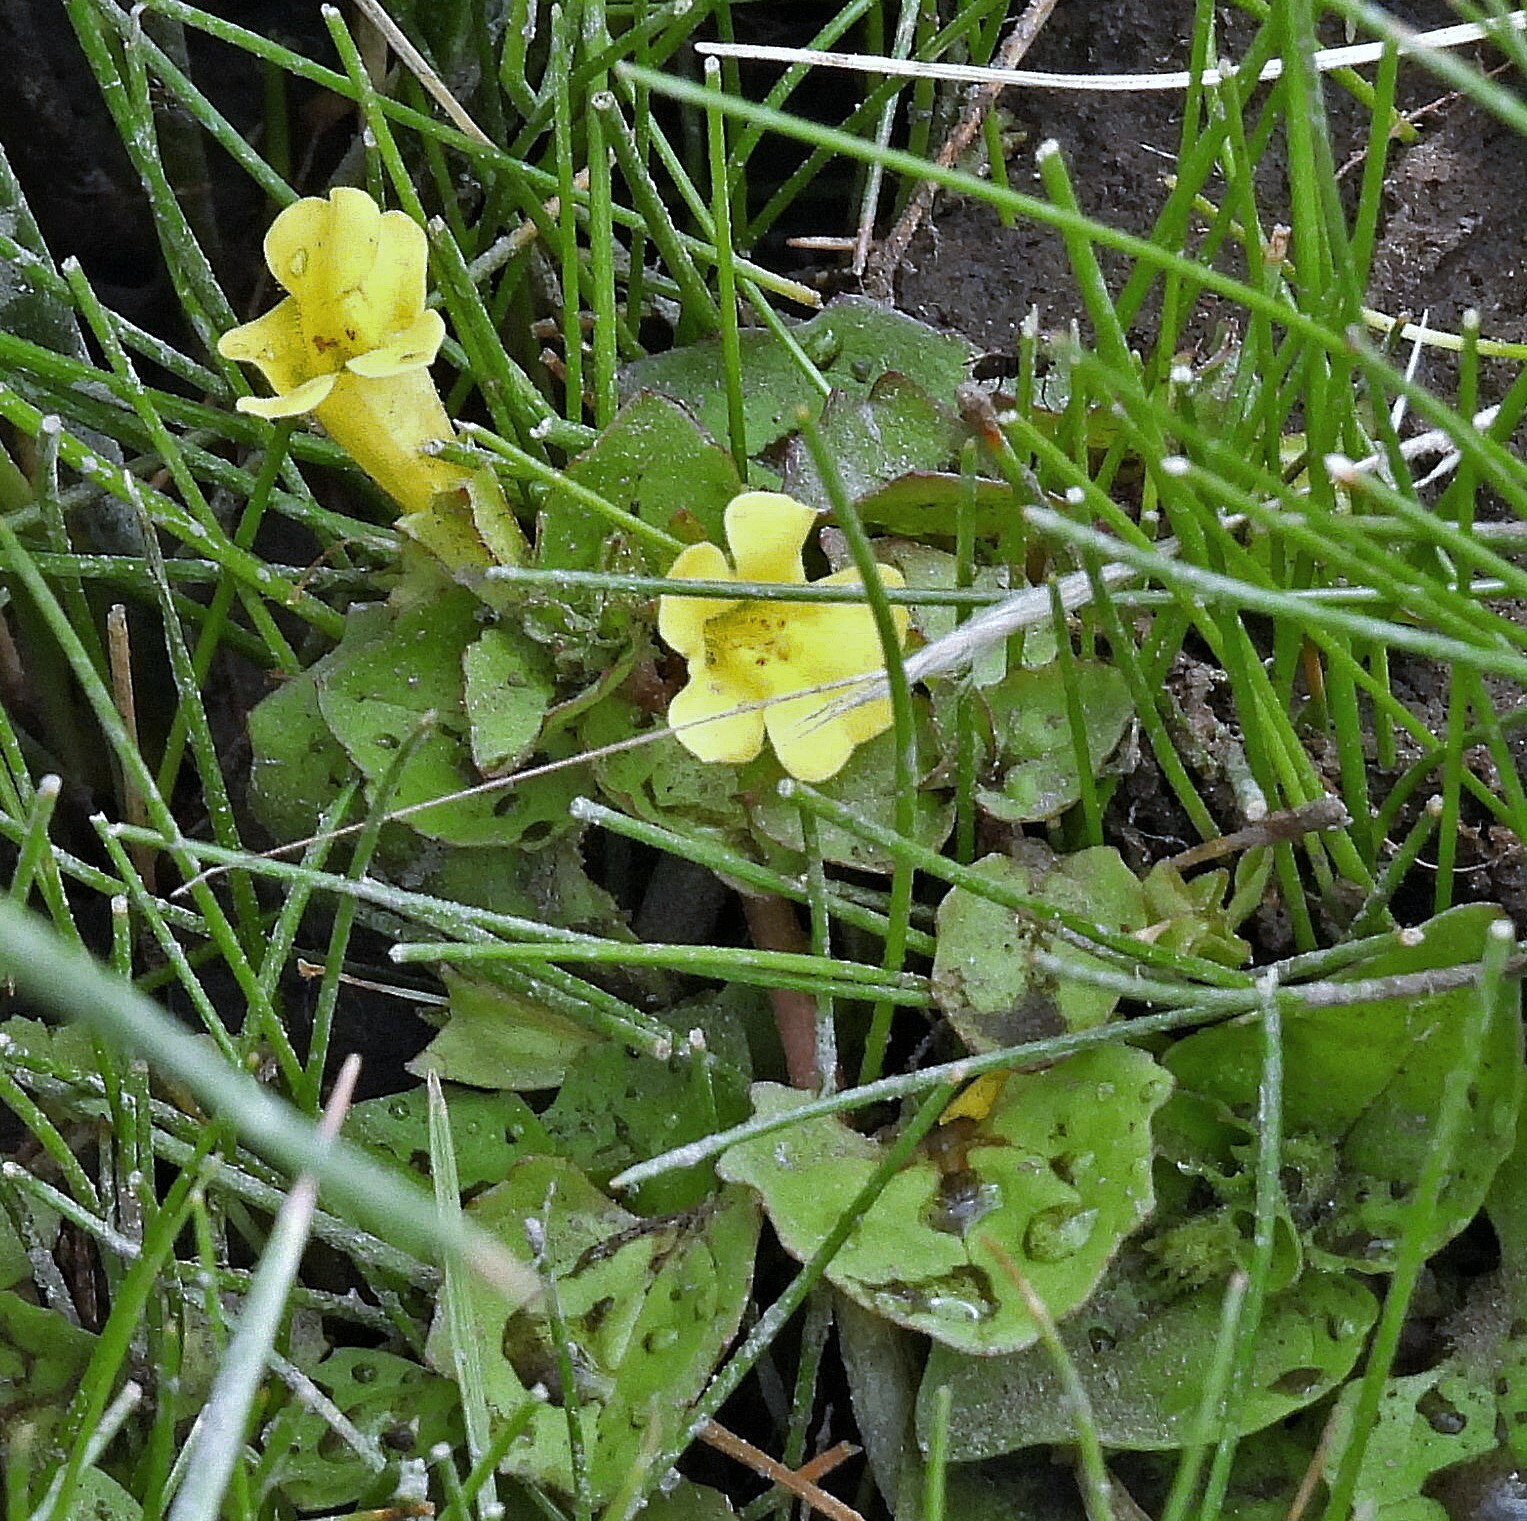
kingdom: Plantae
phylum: Tracheophyta
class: Magnoliopsida
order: Lamiales
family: Phrymaceae
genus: Erythranthe
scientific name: Erythranthe glabrata
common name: Round-leaved monkeyflower
